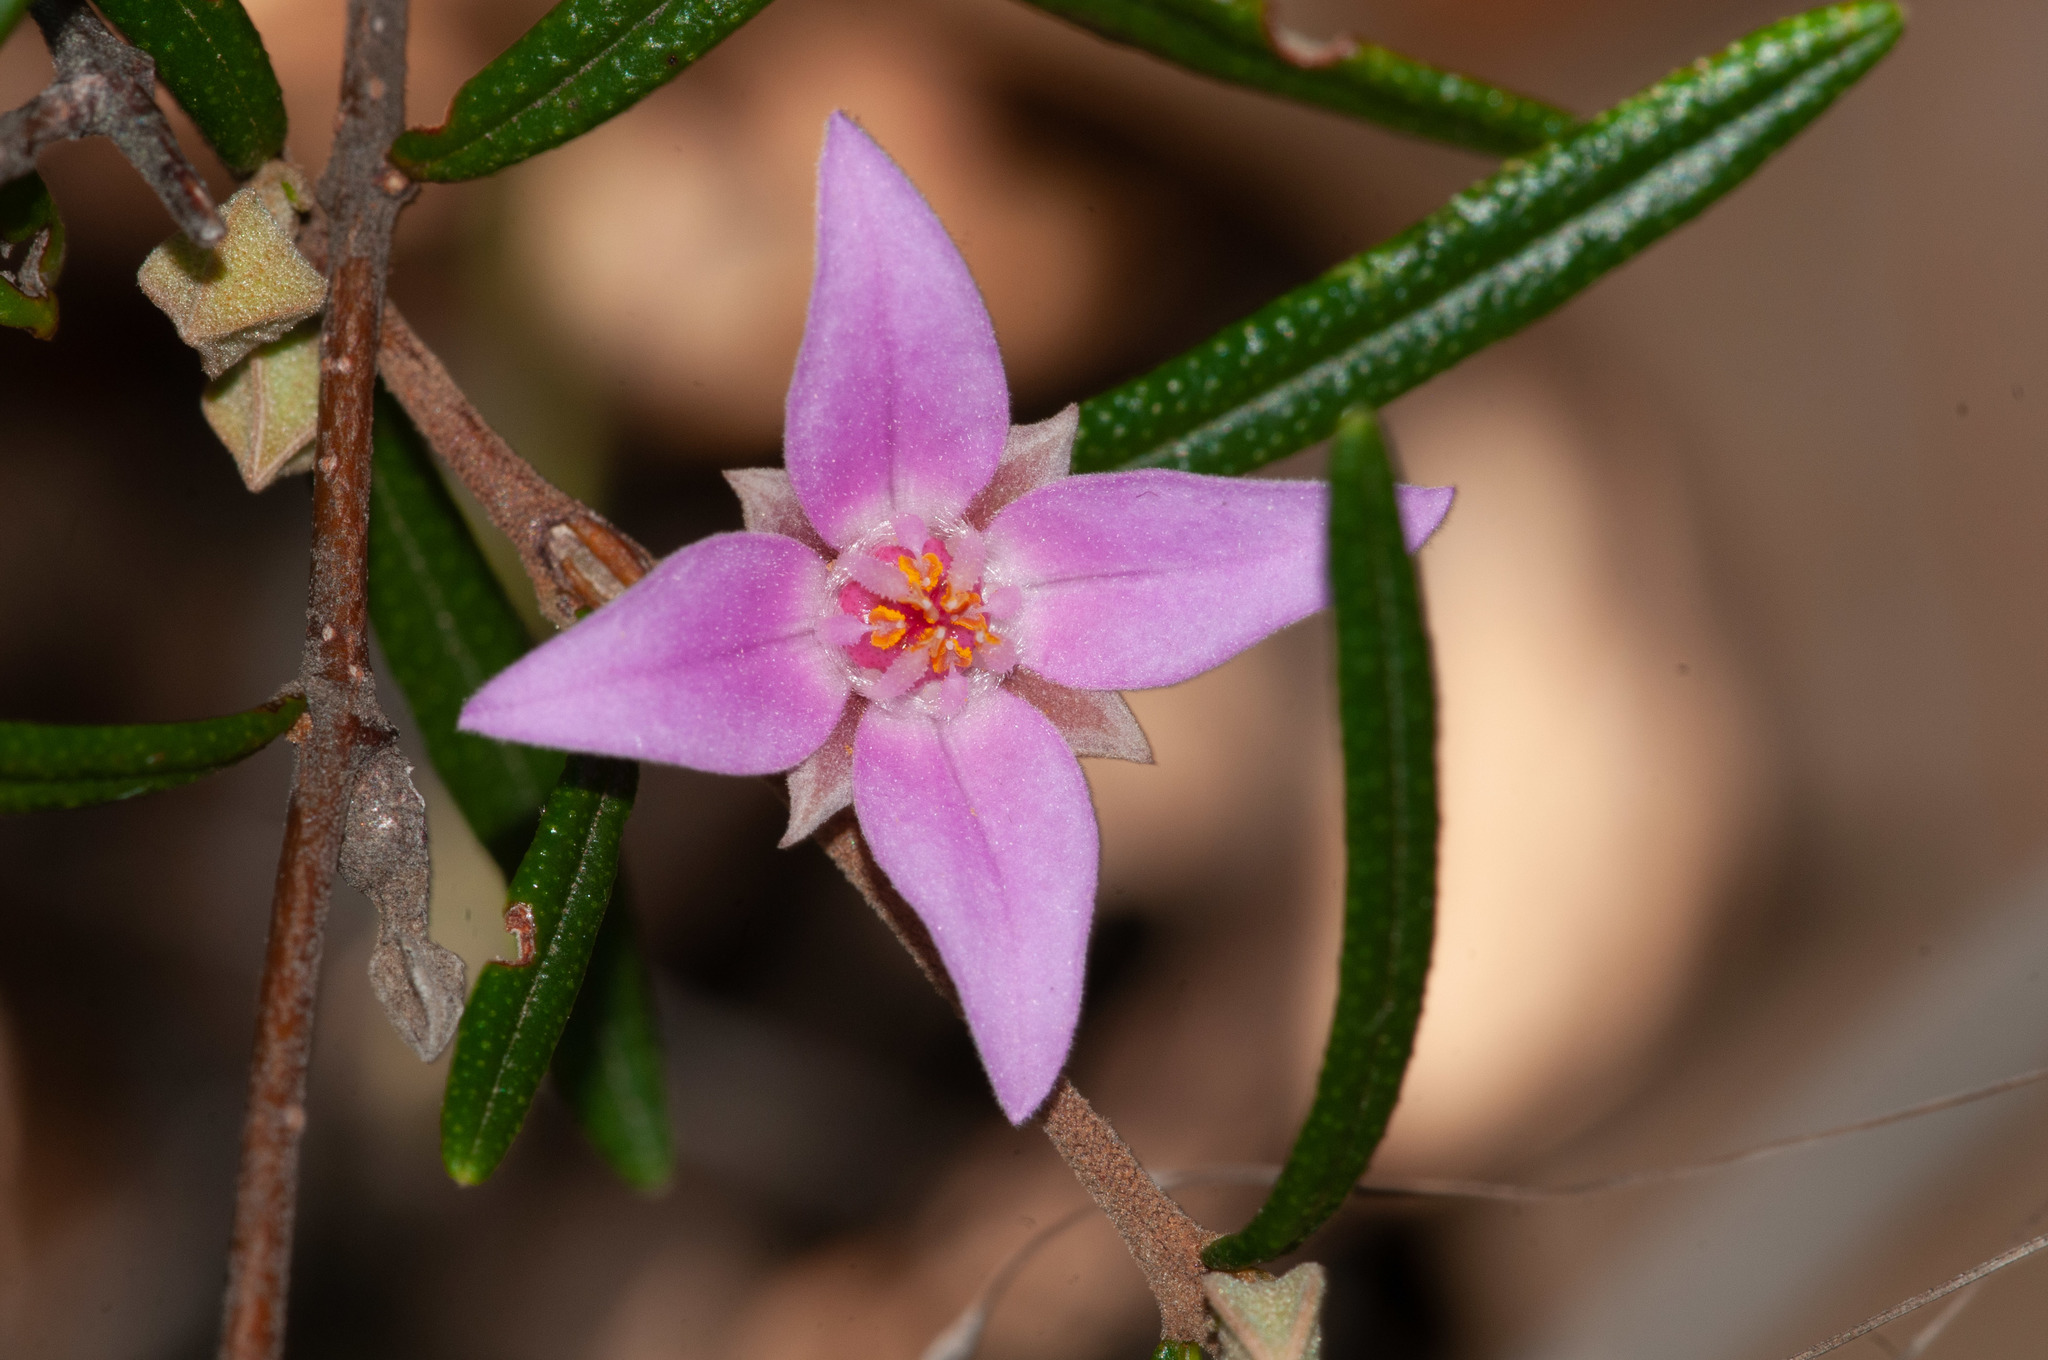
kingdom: Plantae
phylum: Tracheophyta
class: Magnoliopsida
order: Sapindales
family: Rutaceae
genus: Boronia
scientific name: Boronia rosmarinifolia
